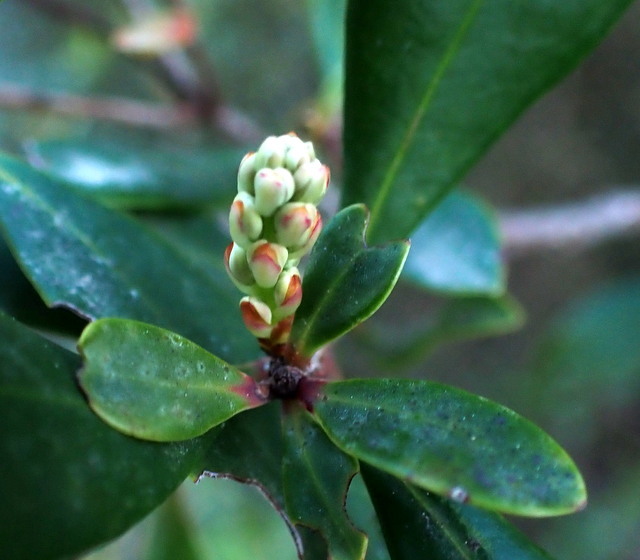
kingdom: Plantae
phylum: Tracheophyta
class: Magnoliopsida
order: Ericales
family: Cyrillaceae
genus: Cliftonia
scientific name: Cliftonia monophylla
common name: Titi
